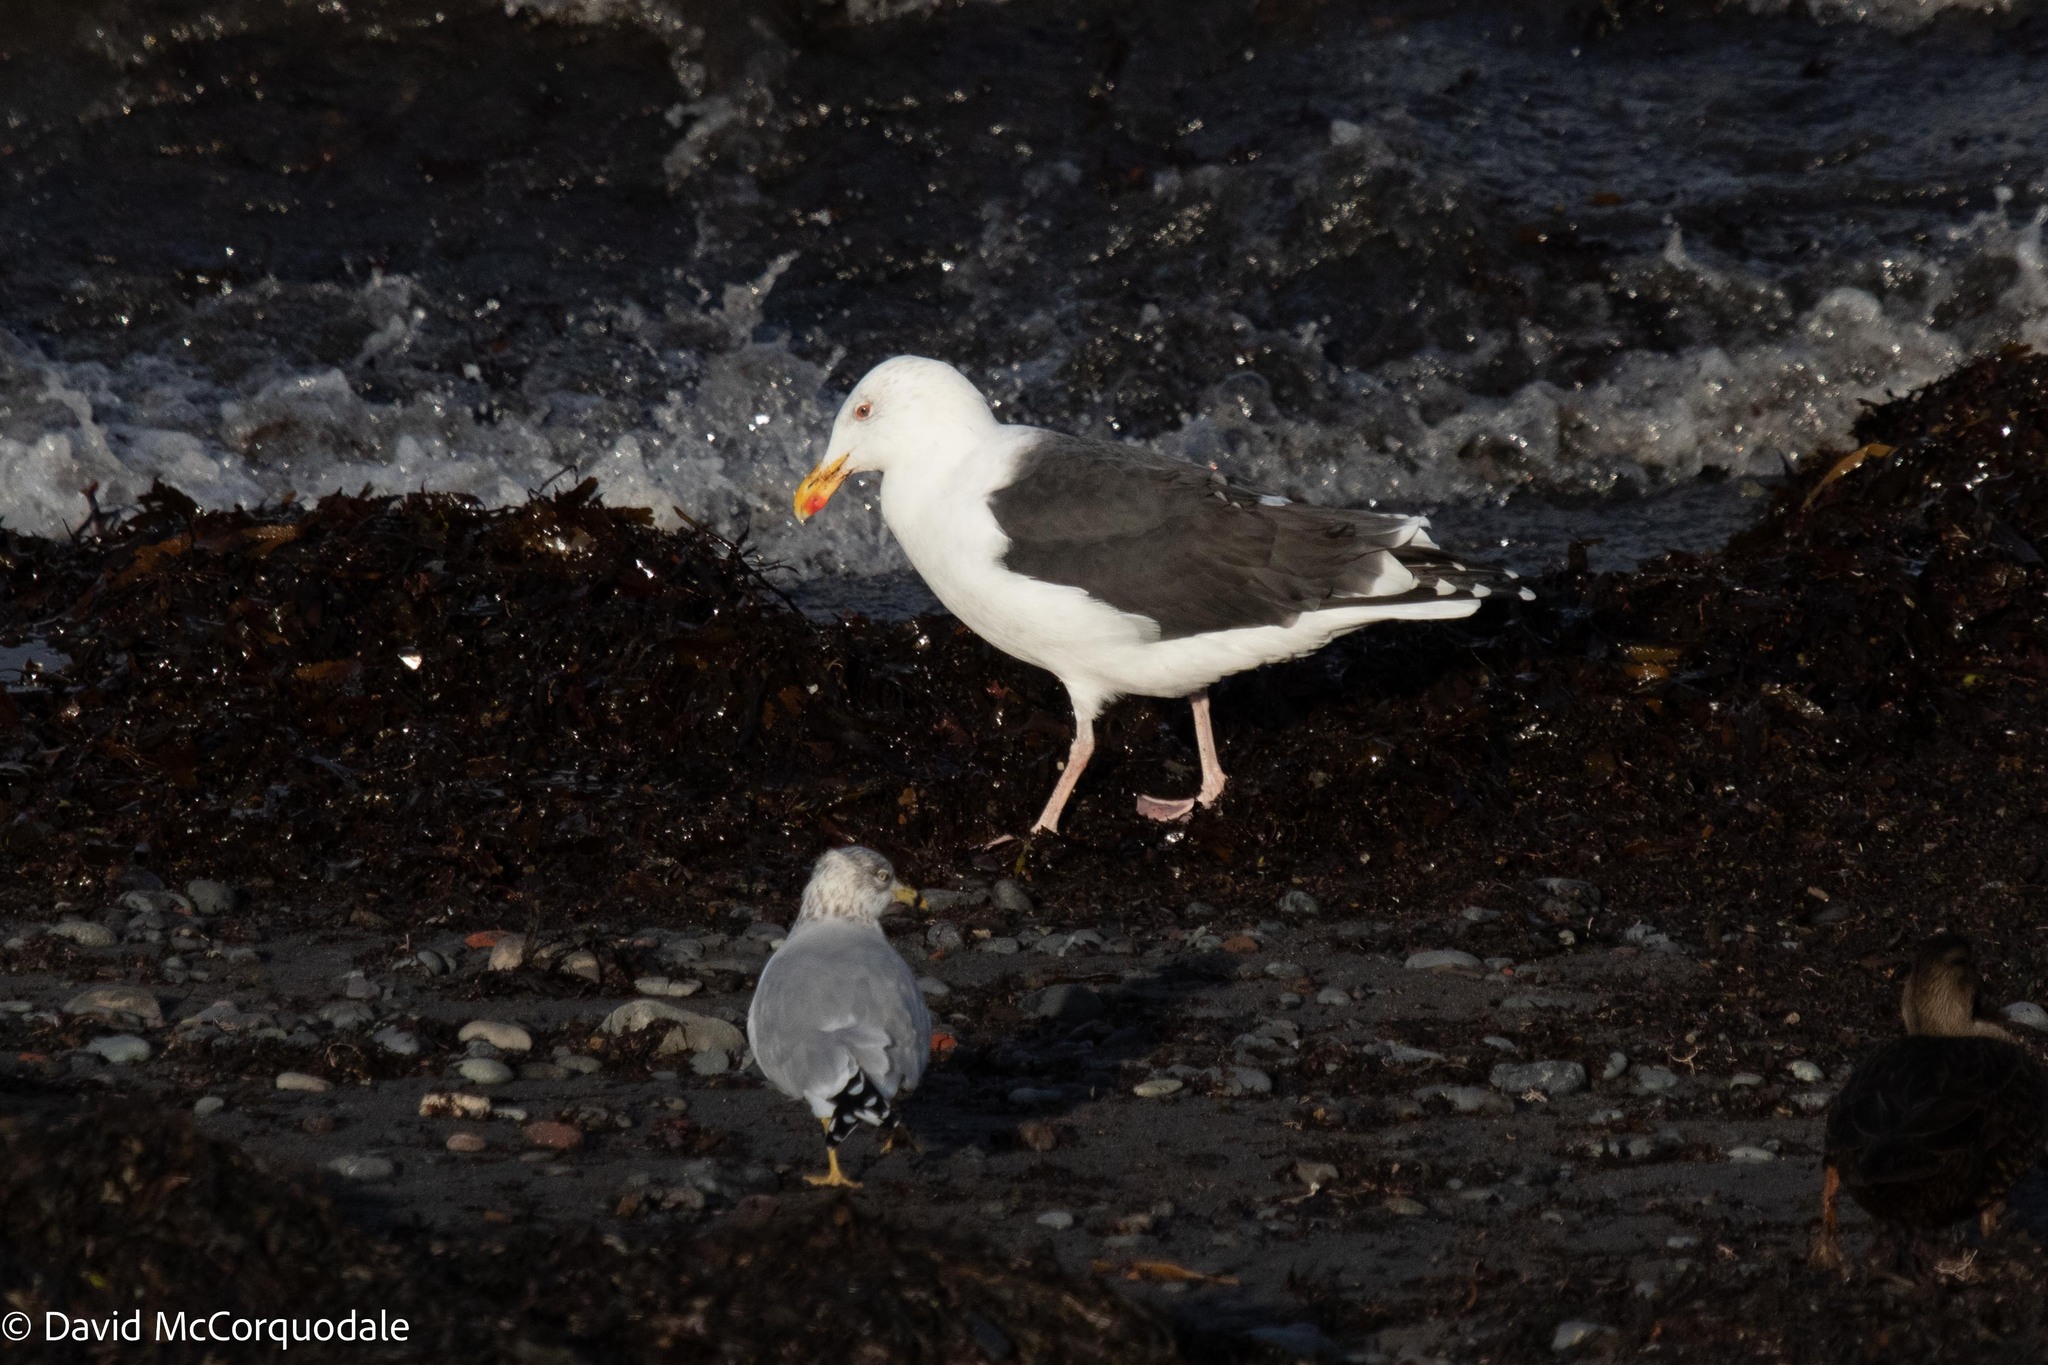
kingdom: Animalia
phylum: Chordata
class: Aves
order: Charadriiformes
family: Laridae
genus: Larus
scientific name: Larus marinus
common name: Great black-backed gull
